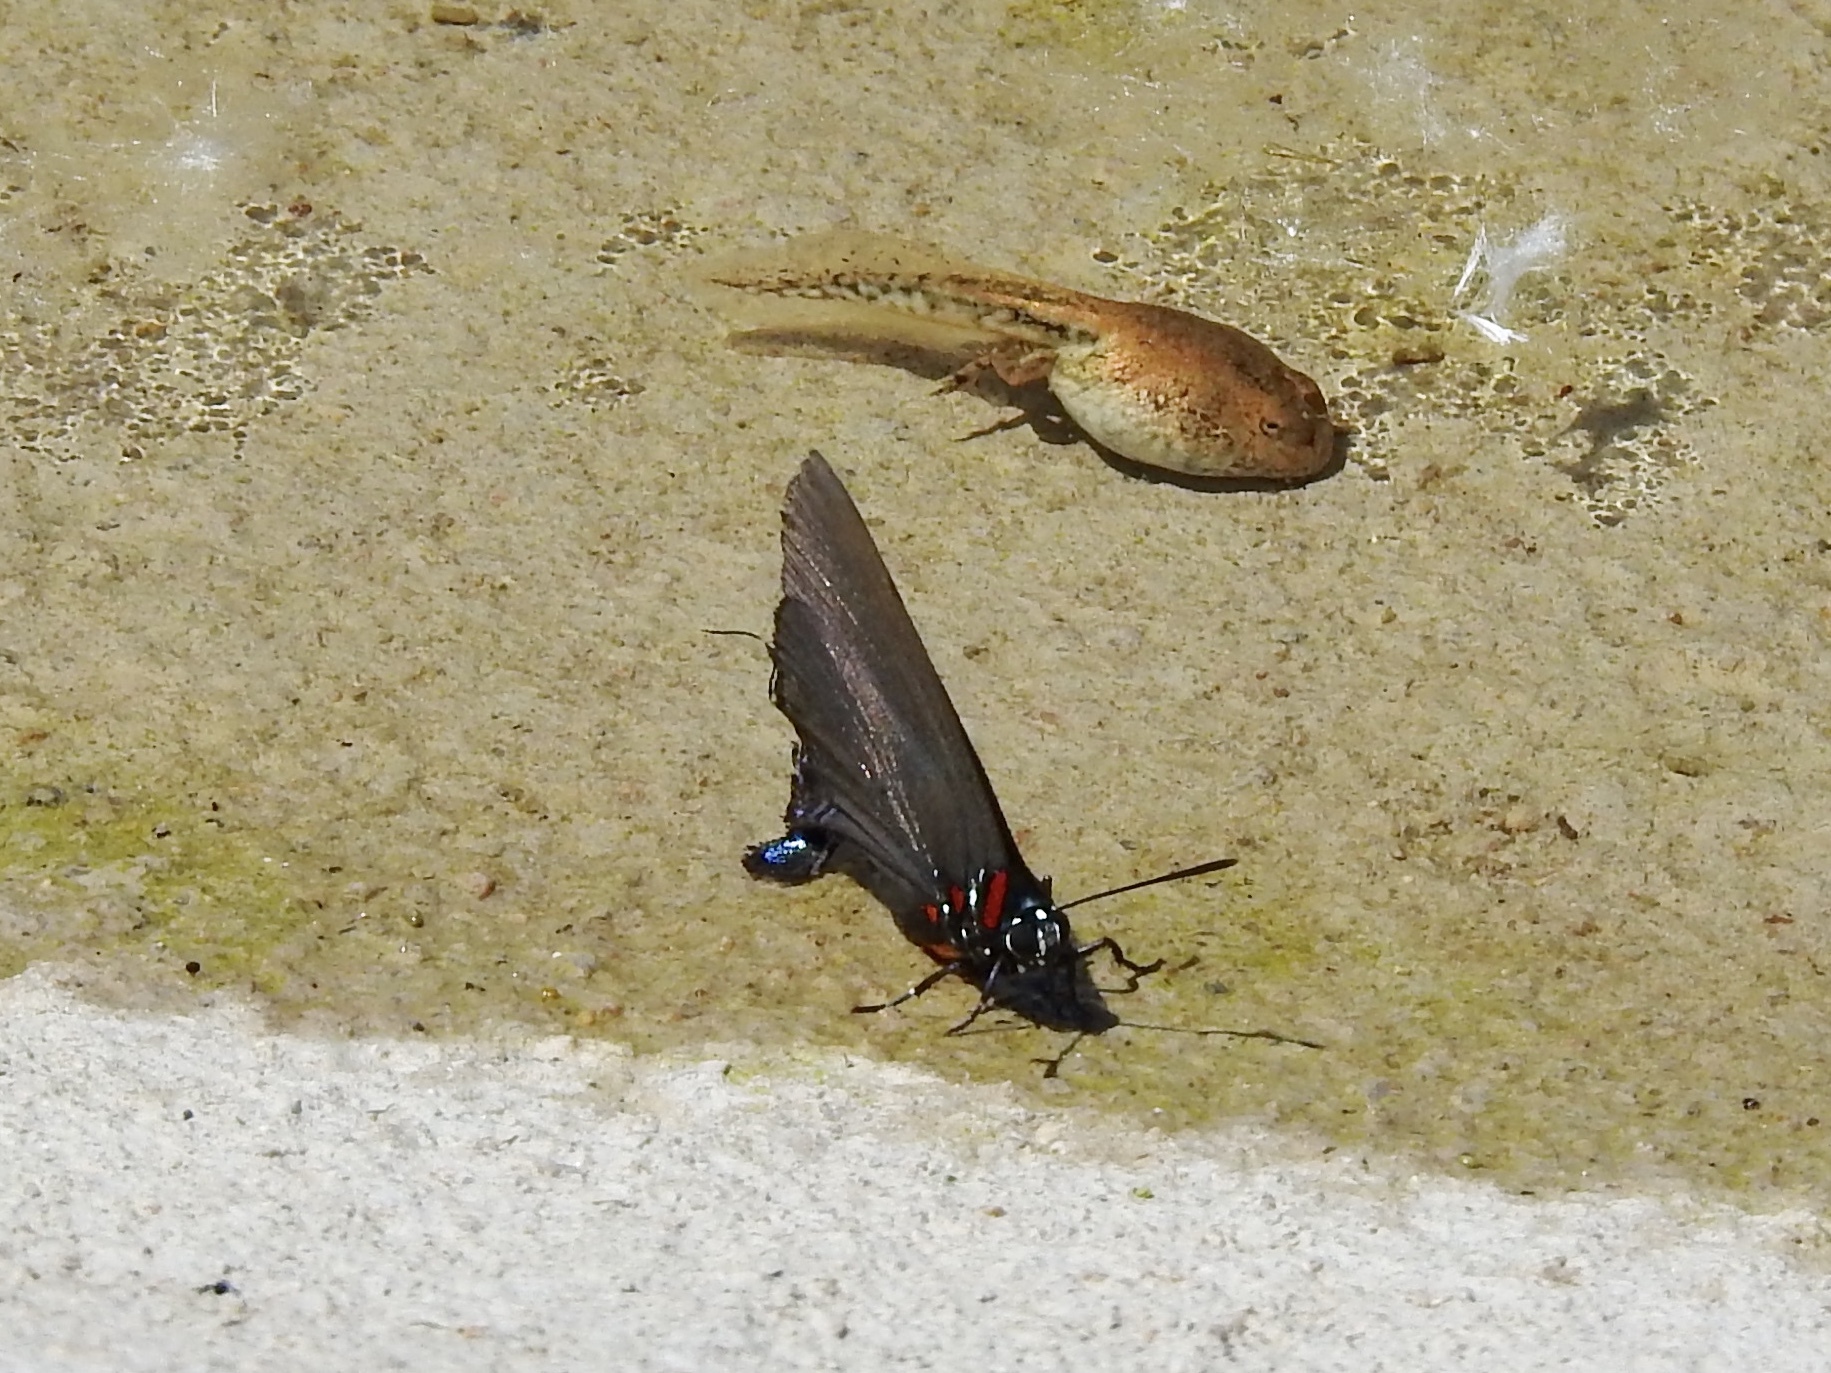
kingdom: Animalia
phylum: Arthropoda
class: Insecta
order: Lepidoptera
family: Lycaenidae
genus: Atlides
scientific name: Atlides halesus
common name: Great purple hairstreak
